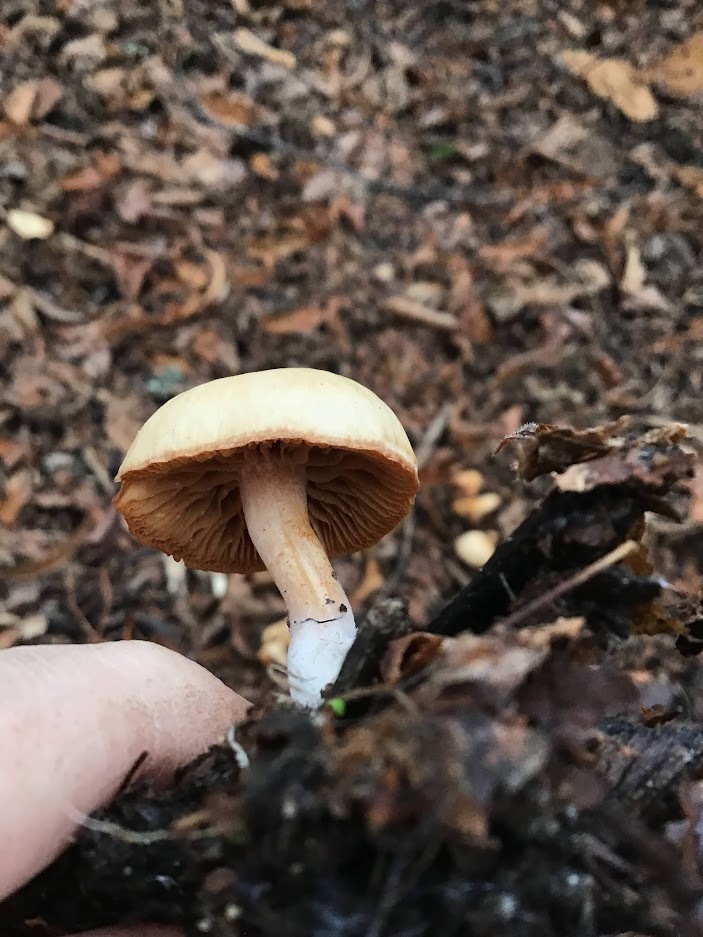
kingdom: Fungi
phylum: Basidiomycota
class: Agaricomycetes
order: Agaricales
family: Omphalotaceae
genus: Collybiopsis
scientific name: Collybiopsis peronata
